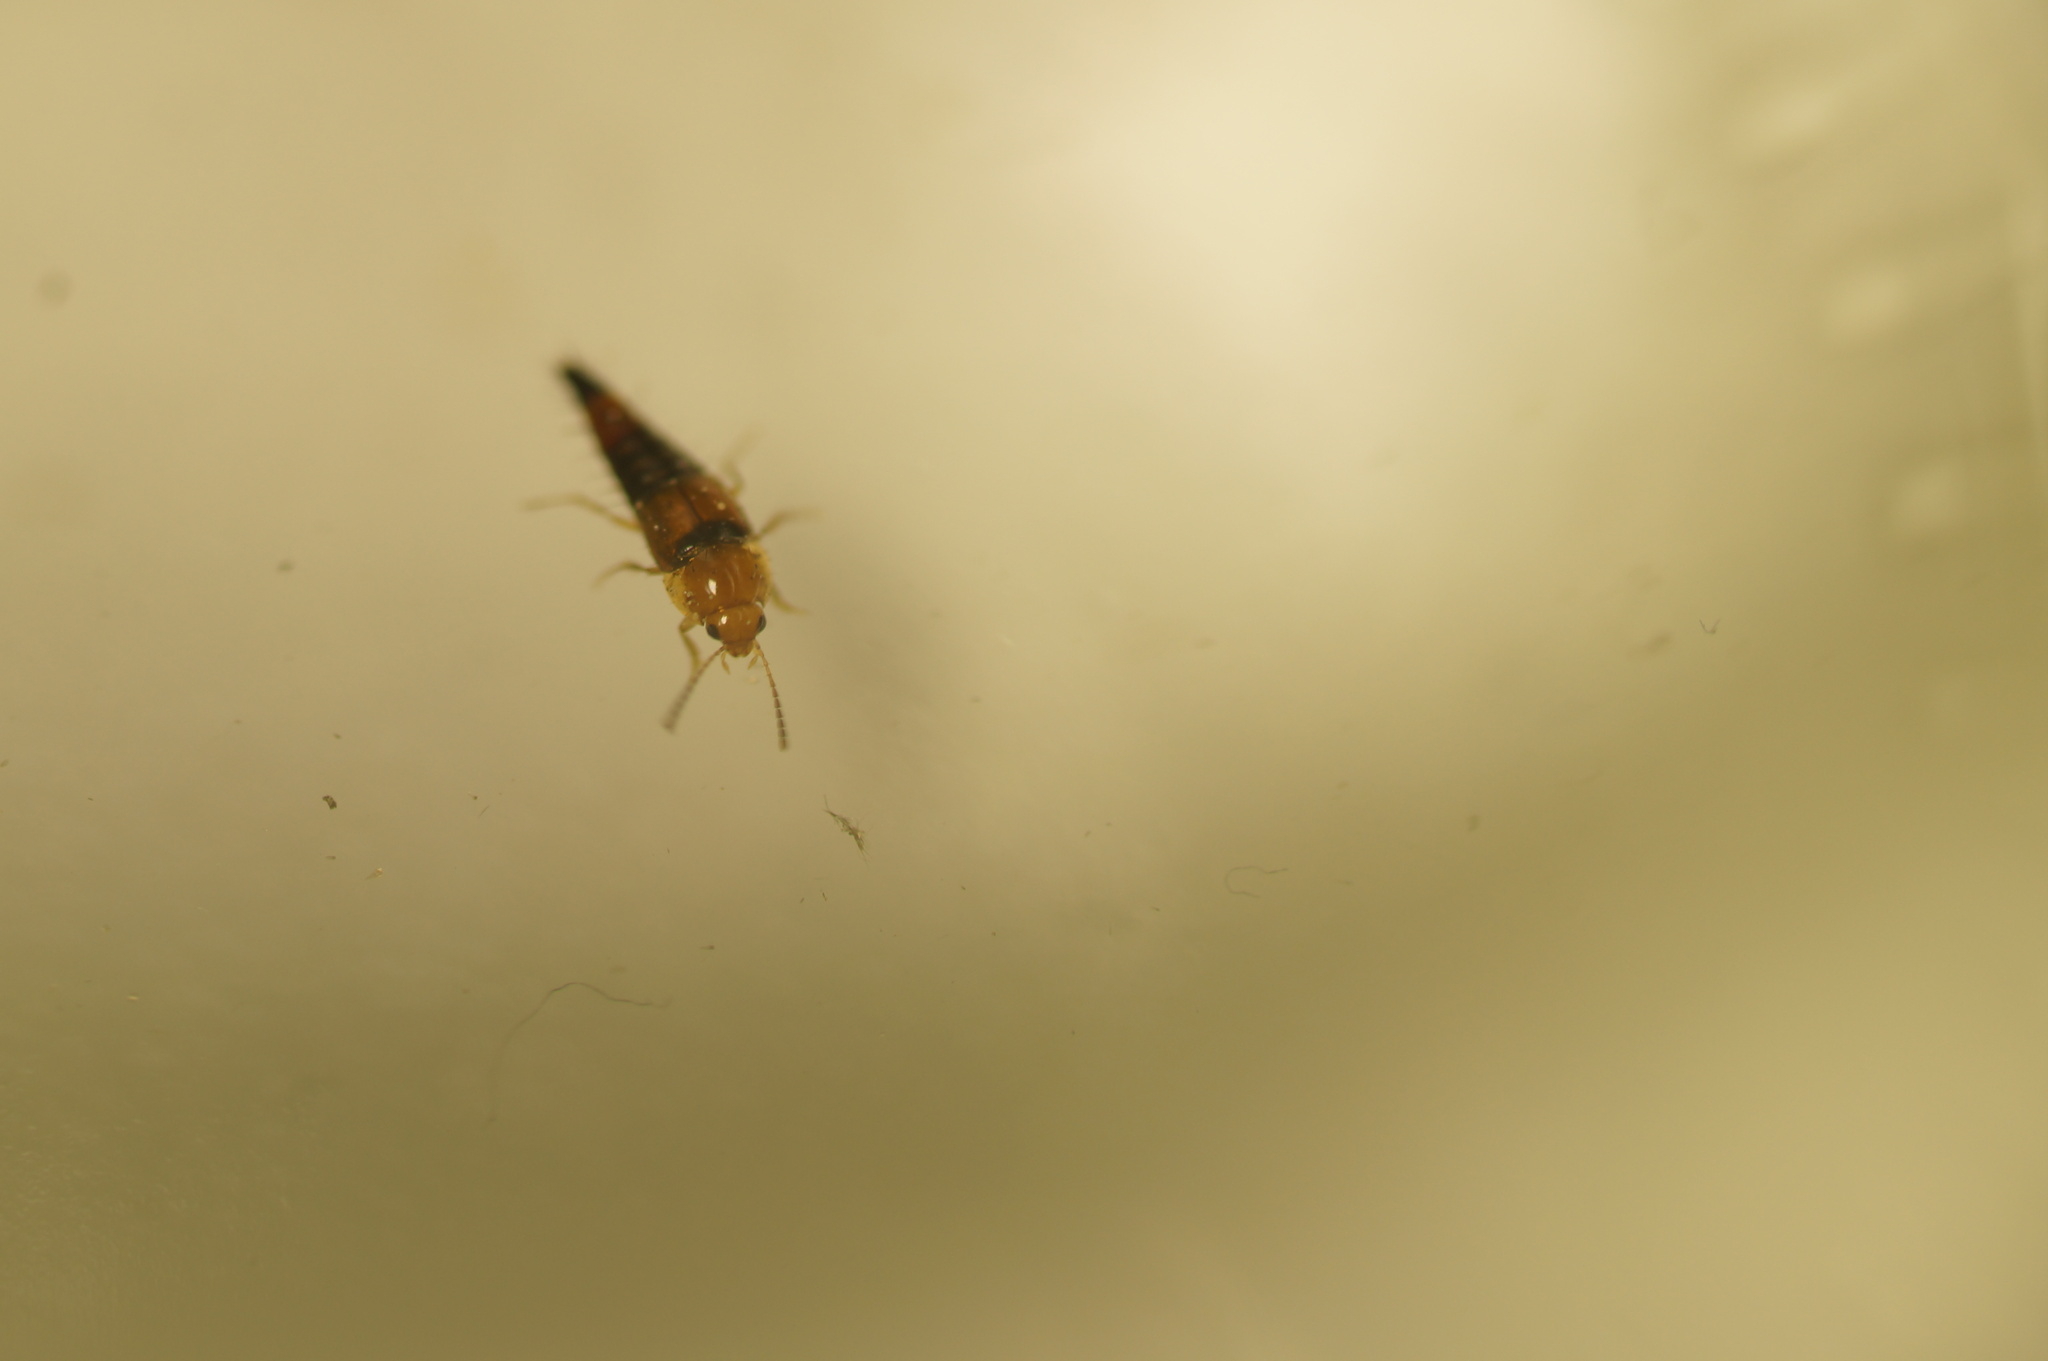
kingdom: Animalia
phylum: Arthropoda
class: Insecta
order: Coleoptera
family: Staphylinidae
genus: Tachyporus
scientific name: Tachyporus formosus
